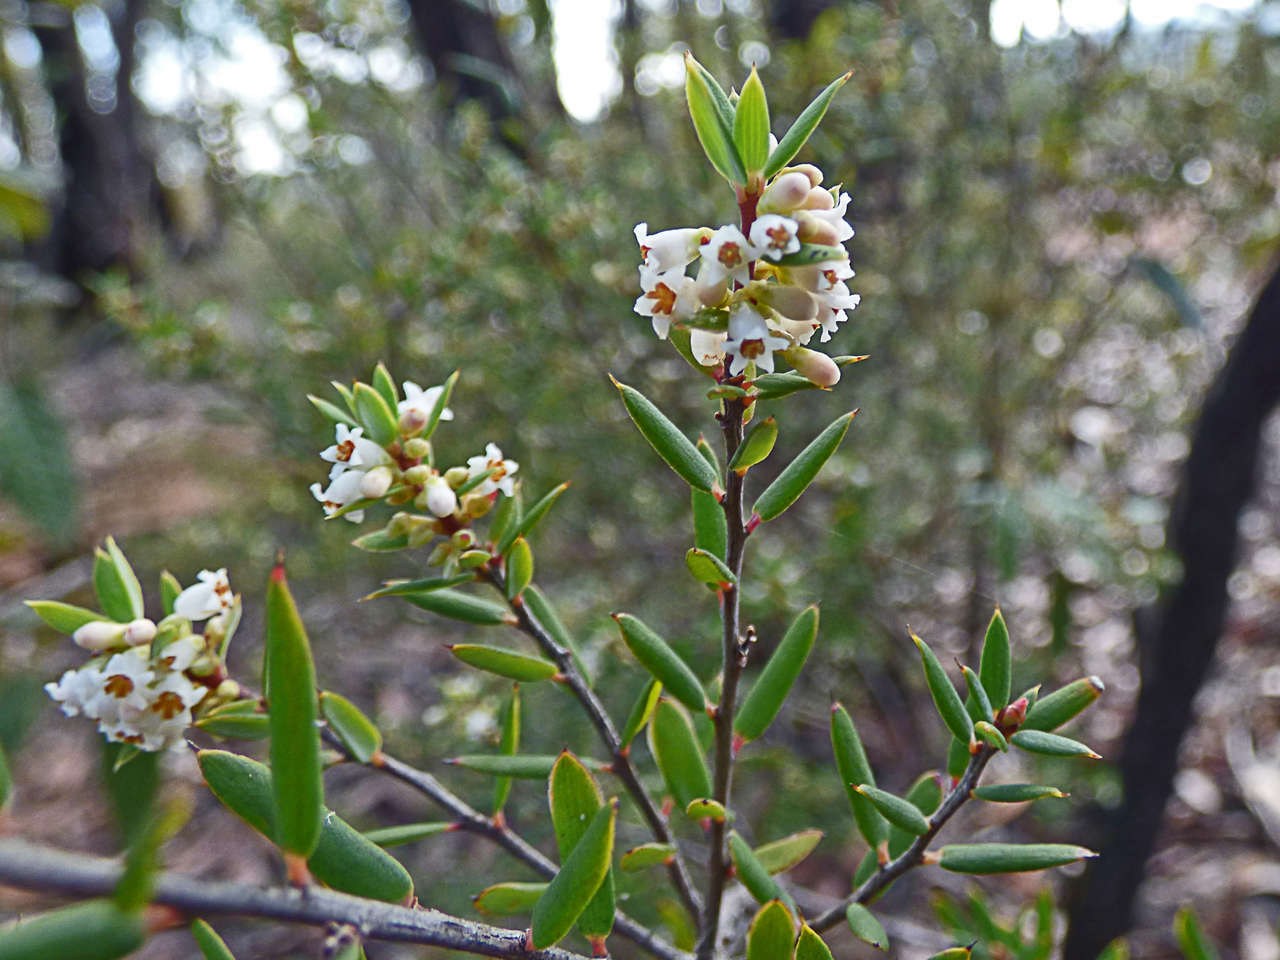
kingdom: Plantae
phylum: Tracheophyta
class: Magnoliopsida
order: Ericales
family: Ericaceae
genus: Monotoca
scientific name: Monotoca scoparia
